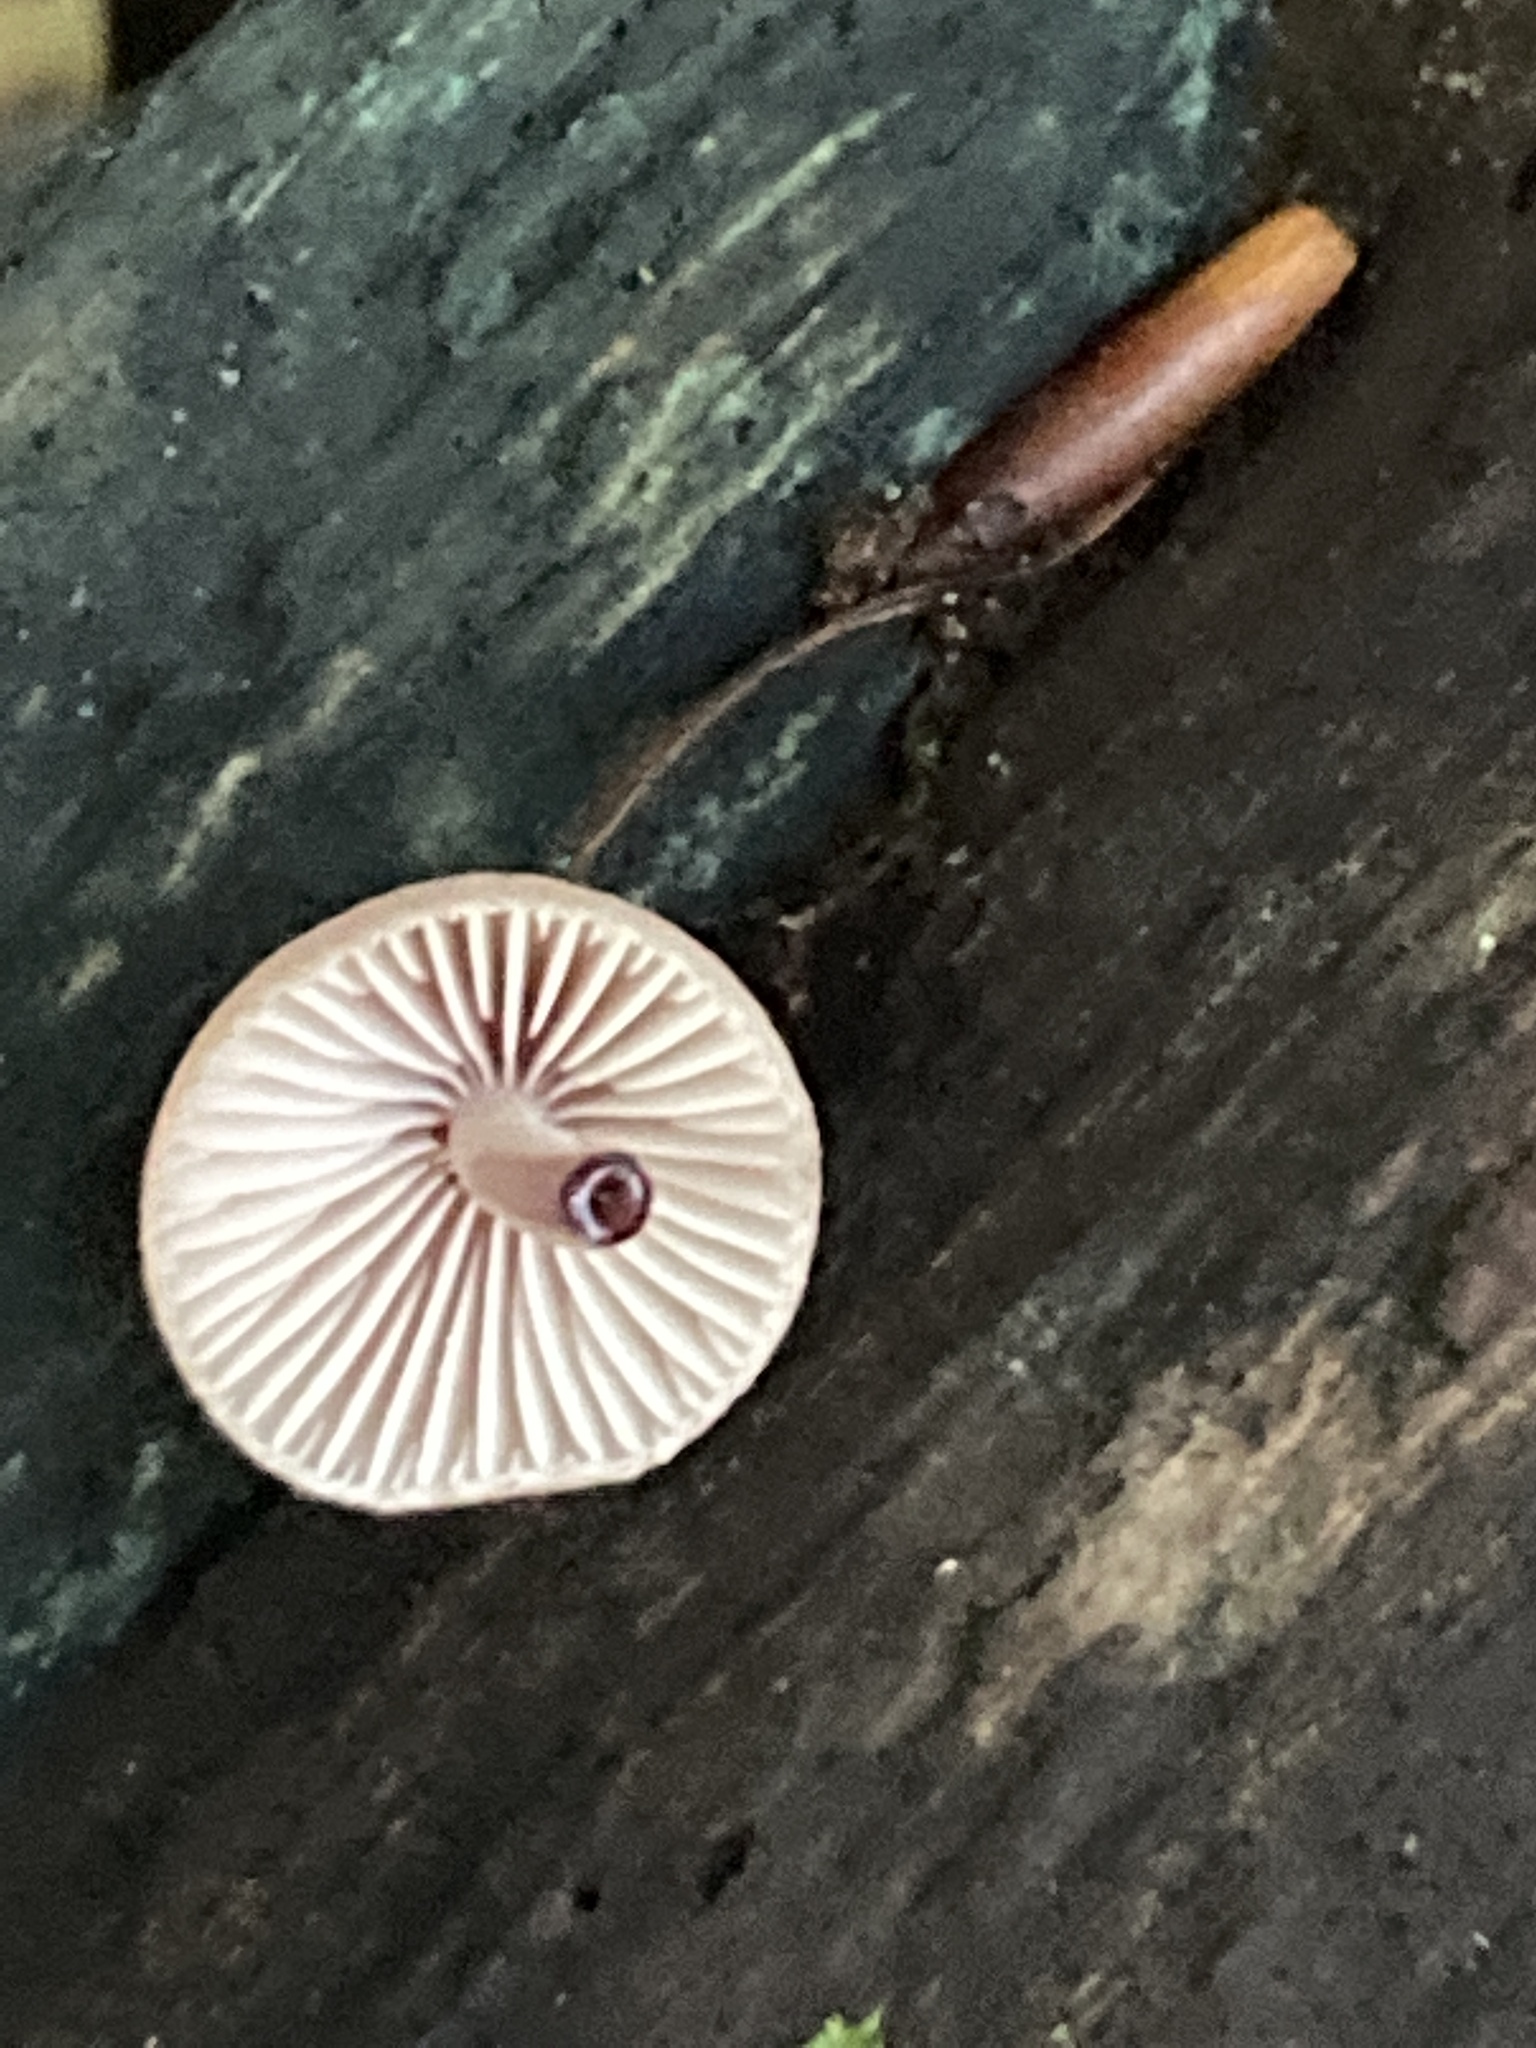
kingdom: Fungi
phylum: Basidiomycota
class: Agaricomycetes
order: Agaricales
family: Mycenaceae
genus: Mycena
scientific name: Mycena haematopus
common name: Burgundydrop bonnet
